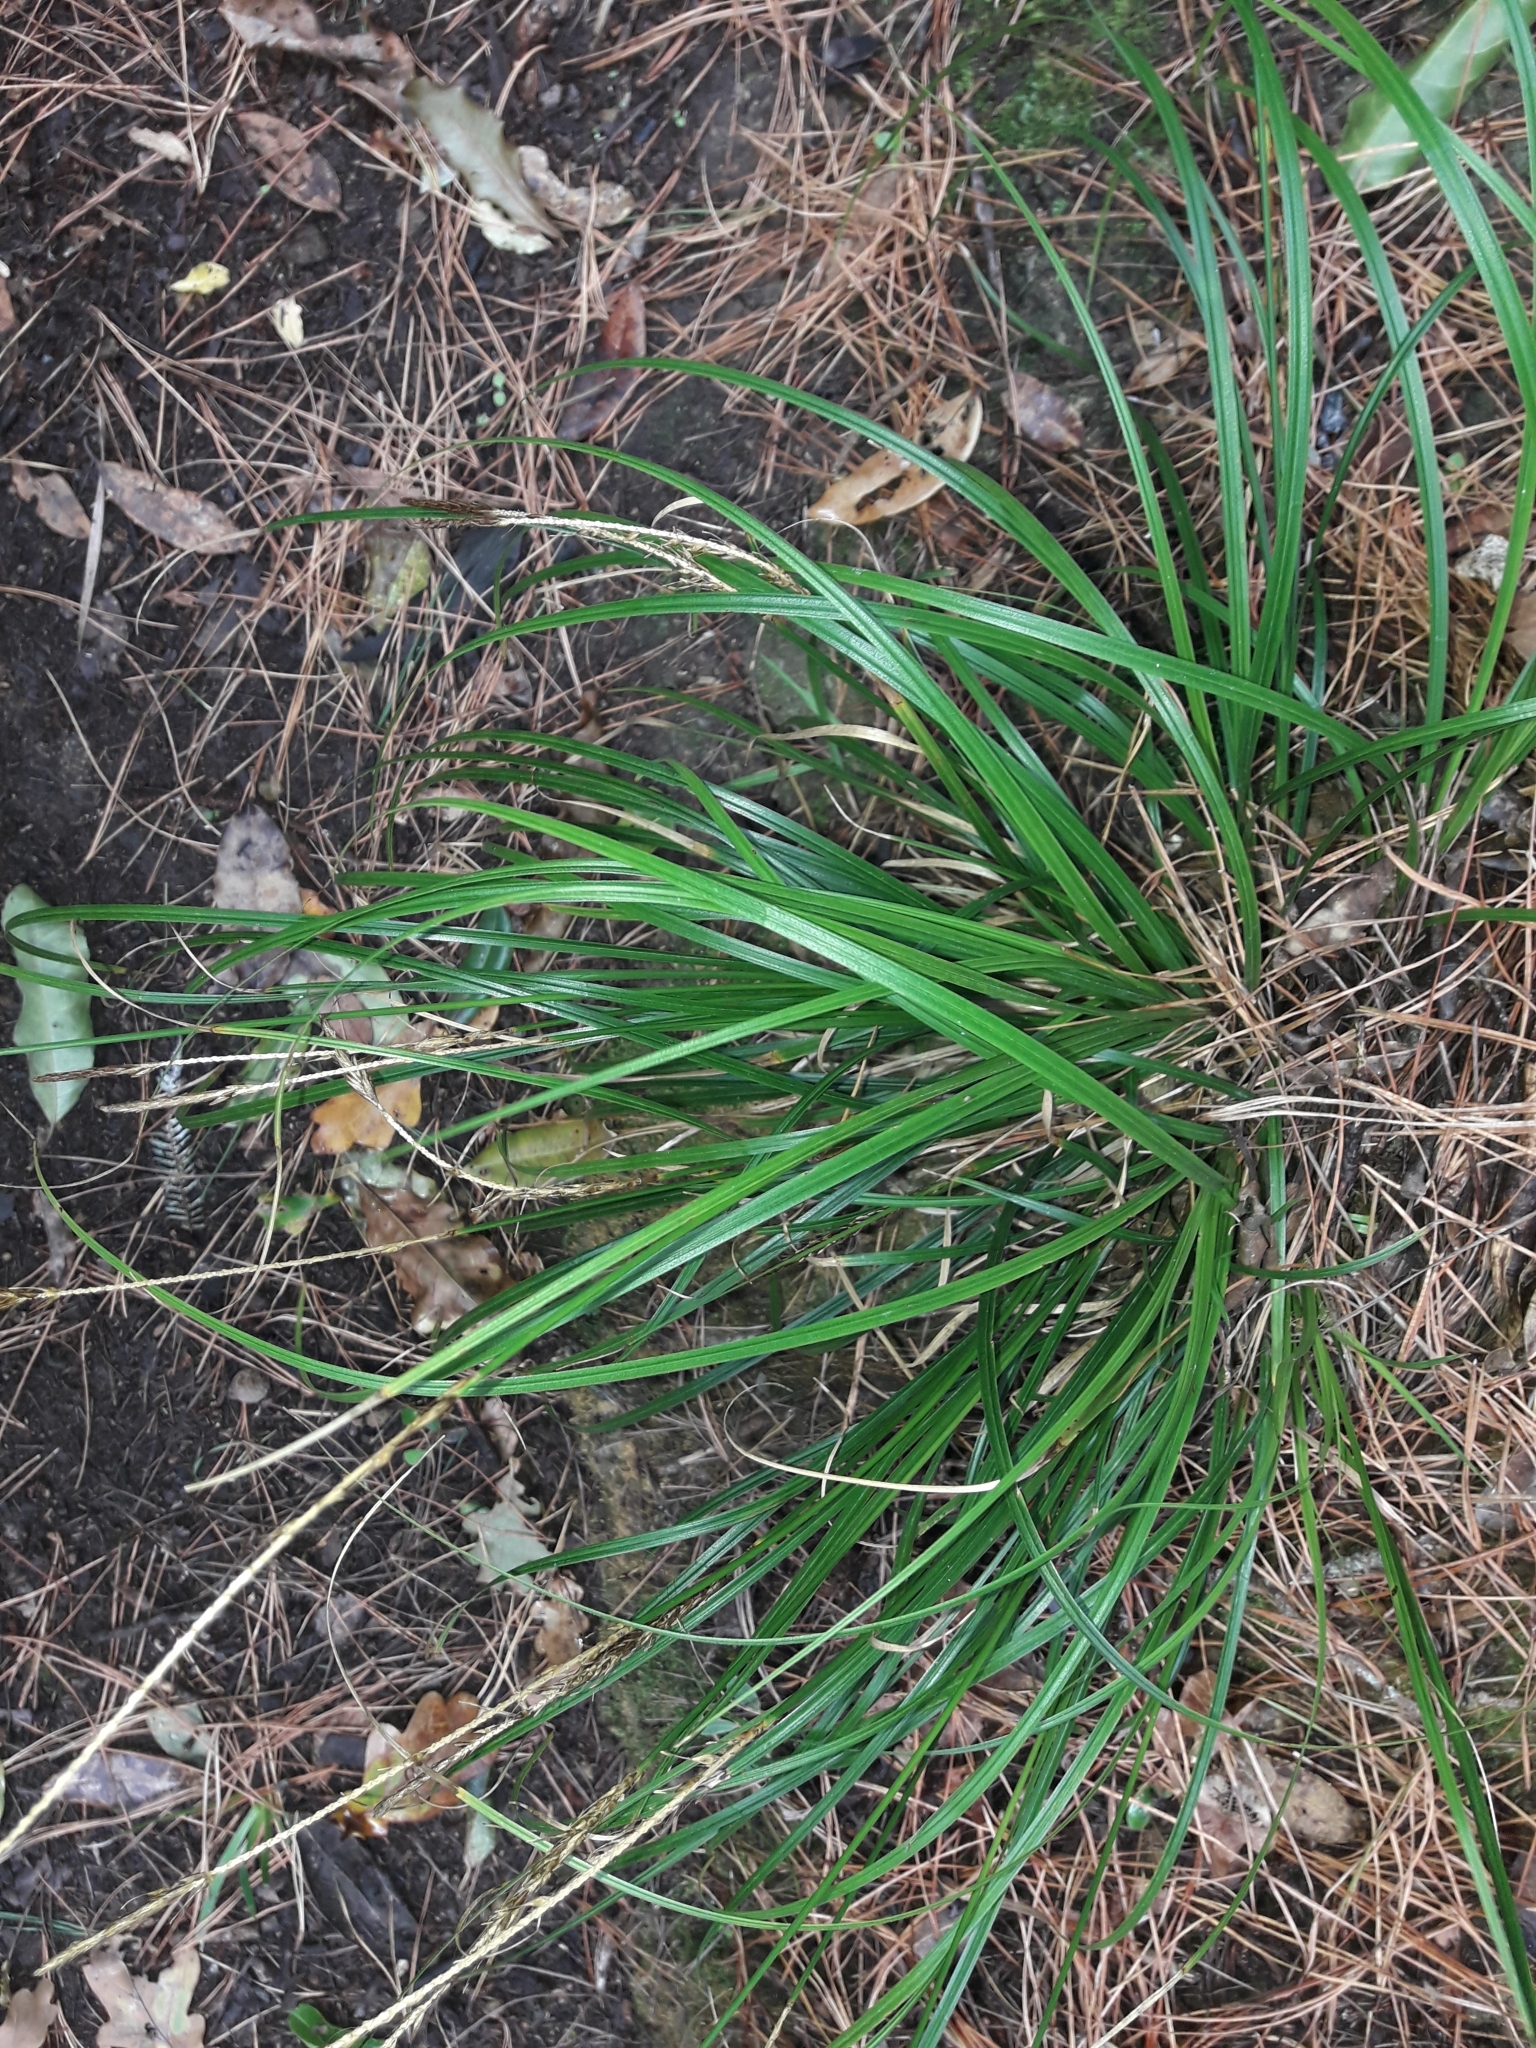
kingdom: Plantae
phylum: Tracheophyta
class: Liliopsida
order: Poales
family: Cyperaceae
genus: Carex
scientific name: Carex uncinata
